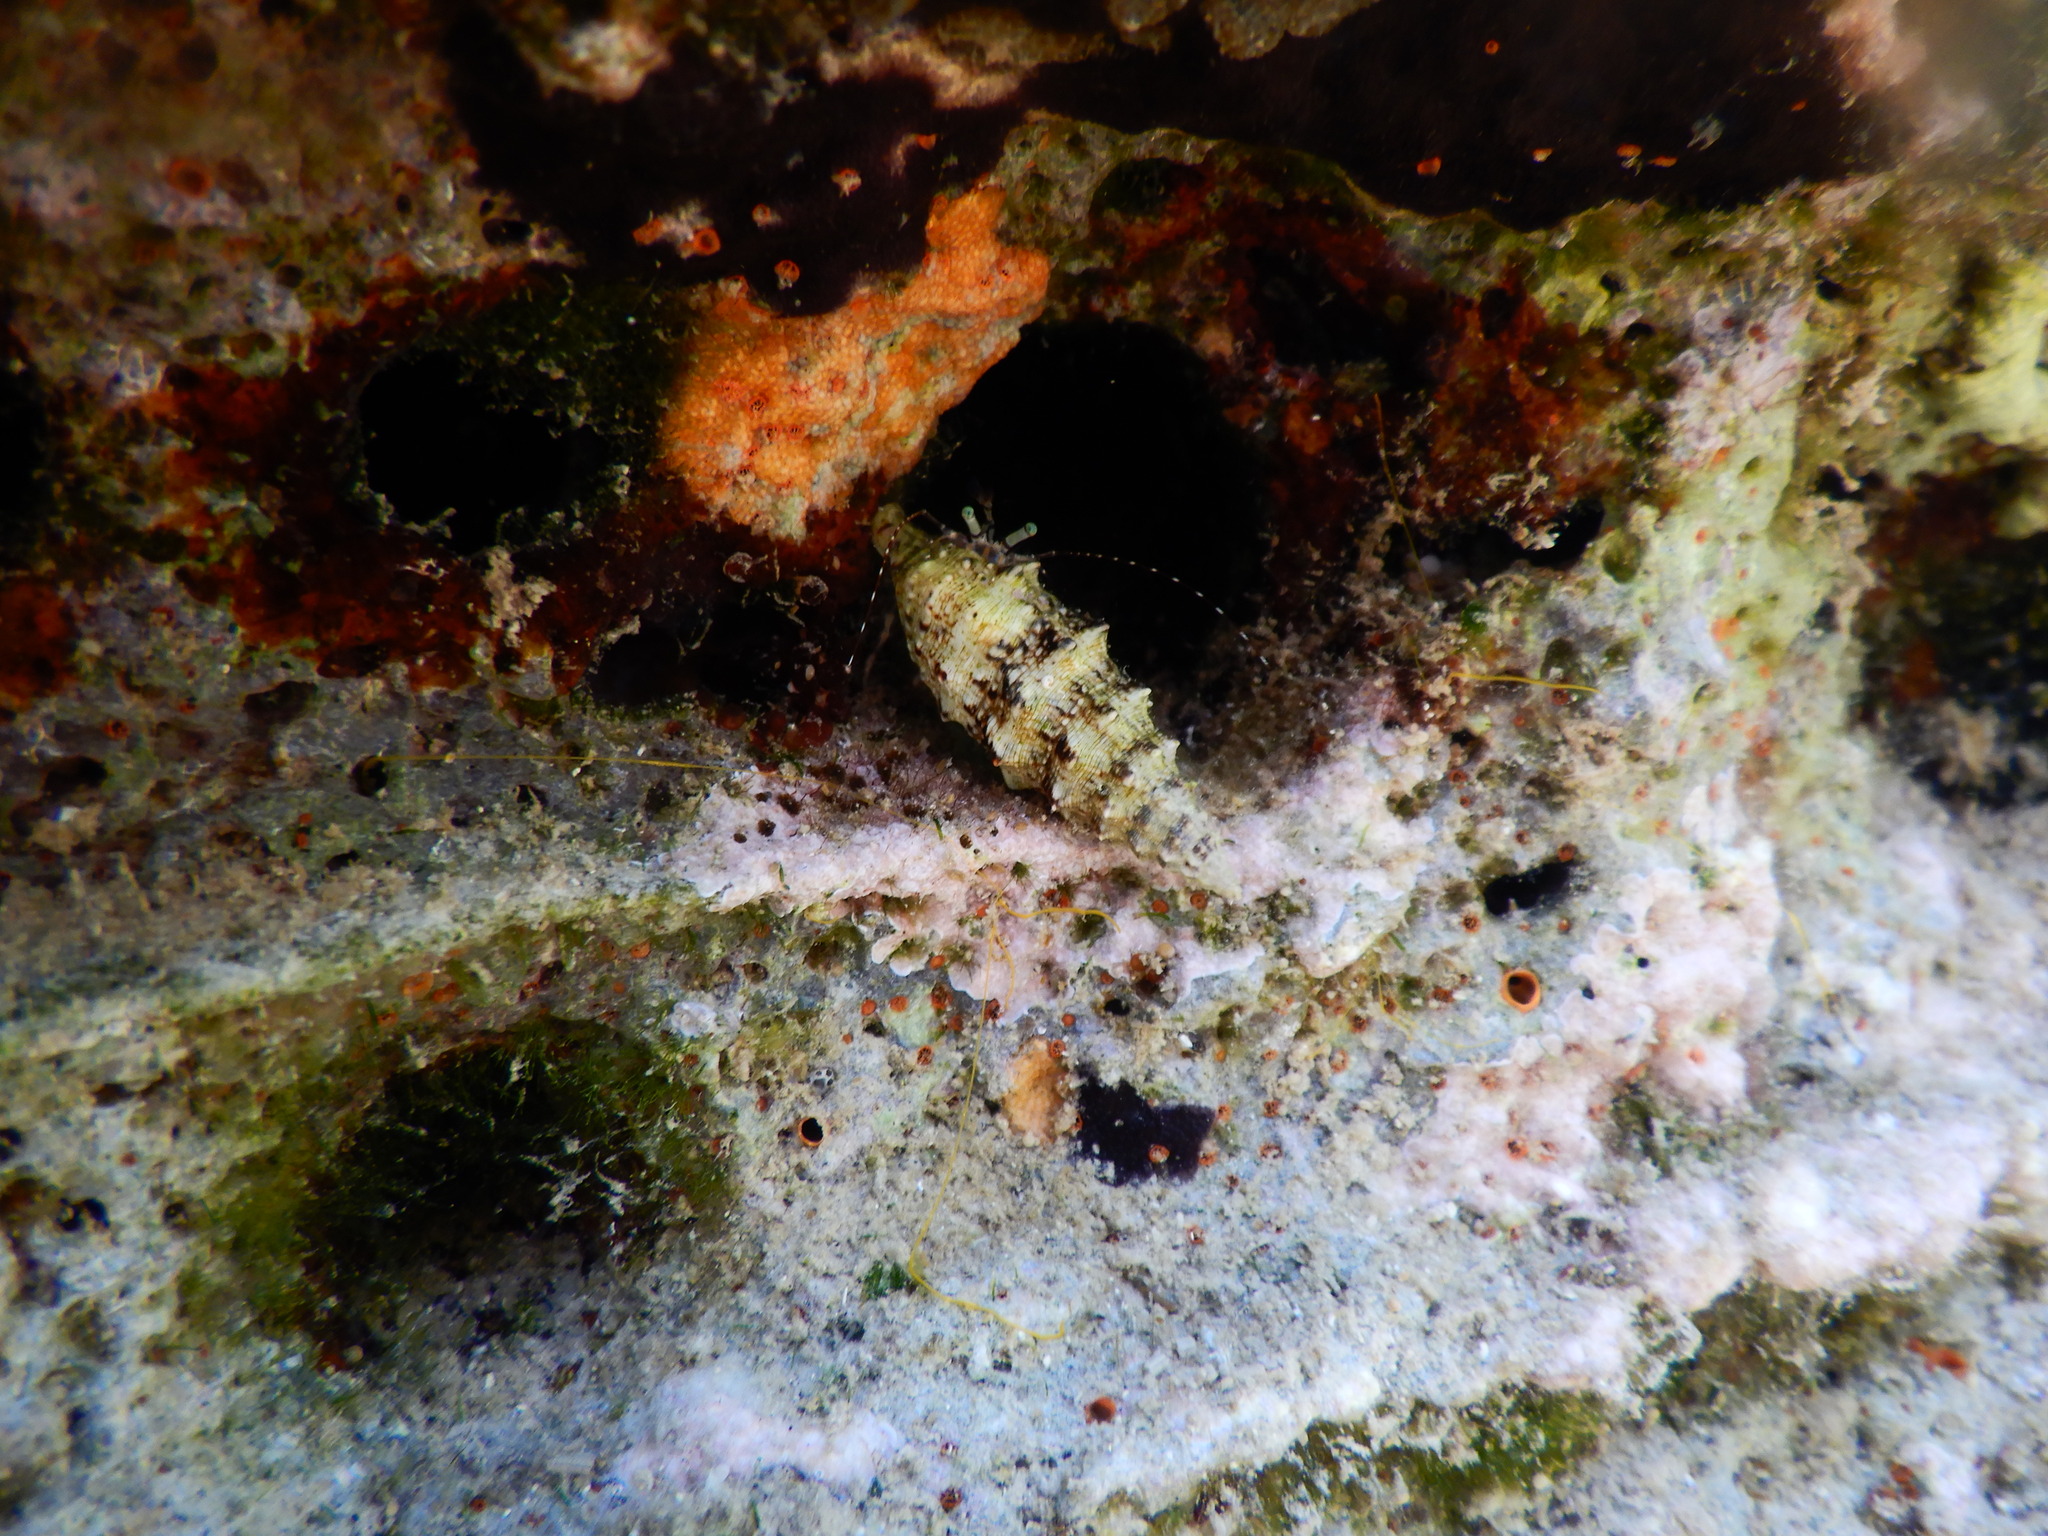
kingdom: Animalia
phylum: Mollusca
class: Gastropoda
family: Cerithiidae
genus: Cerithium
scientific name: Cerithium vulgatum
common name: European cerith
